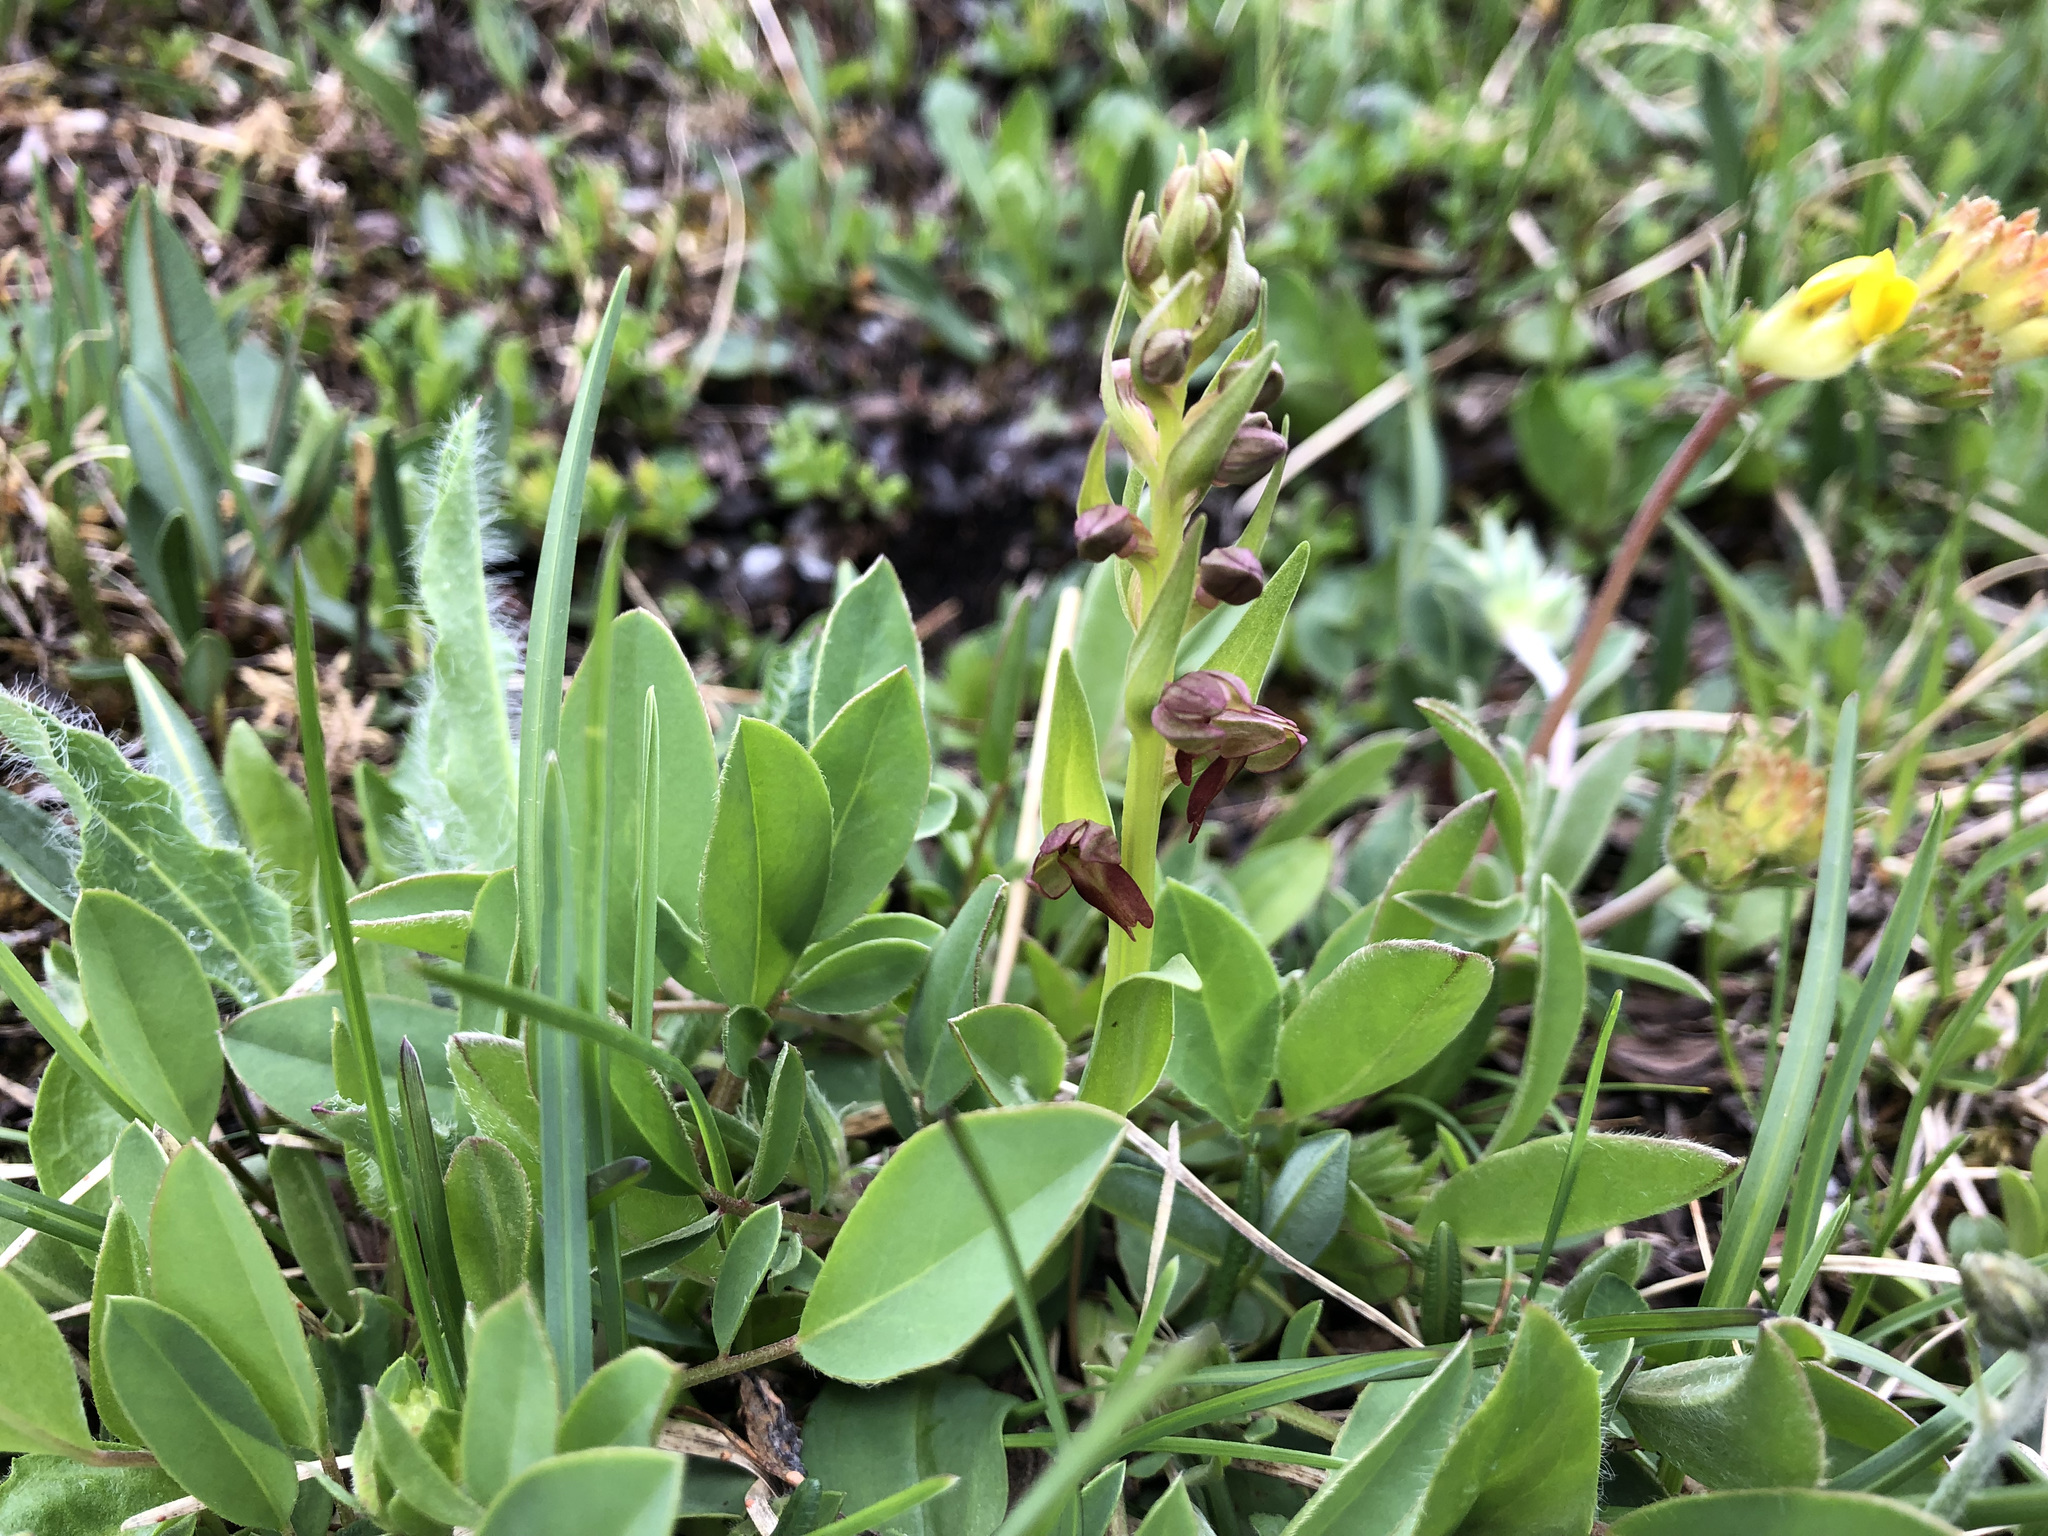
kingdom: Plantae
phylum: Tracheophyta
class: Liliopsida
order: Asparagales
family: Orchidaceae
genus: Dactylorhiza
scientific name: Dactylorhiza viridis
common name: Longbract frog orchid
